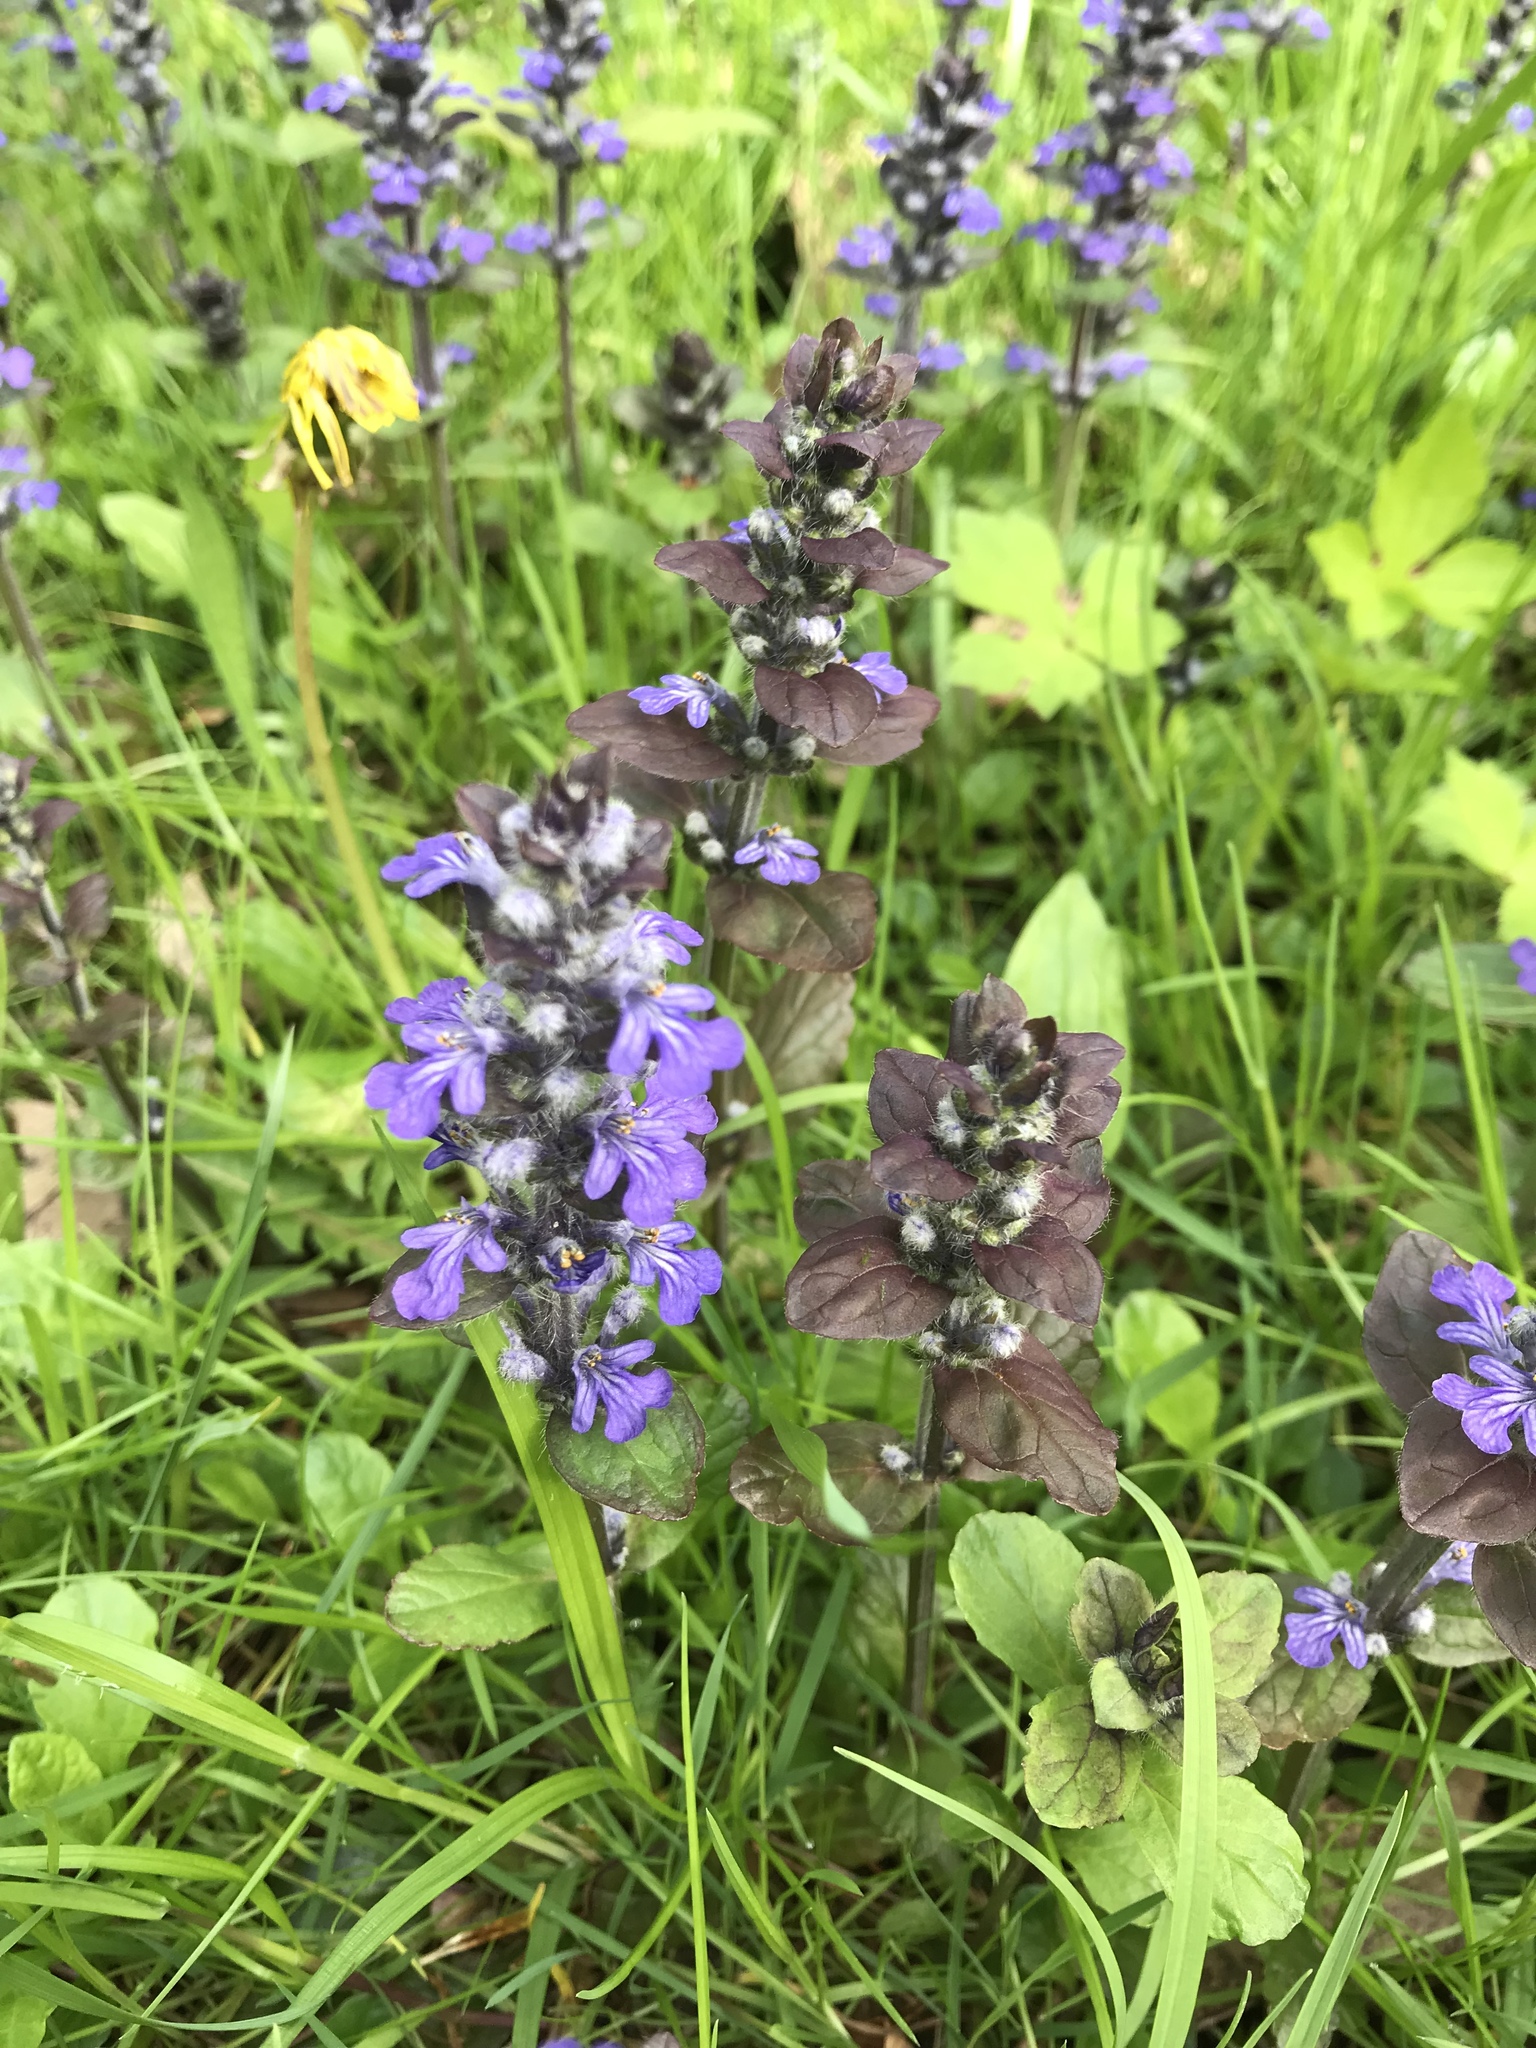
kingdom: Plantae
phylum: Tracheophyta
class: Magnoliopsida
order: Lamiales
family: Lamiaceae
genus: Ajuga
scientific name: Ajuga reptans
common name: Bugle
